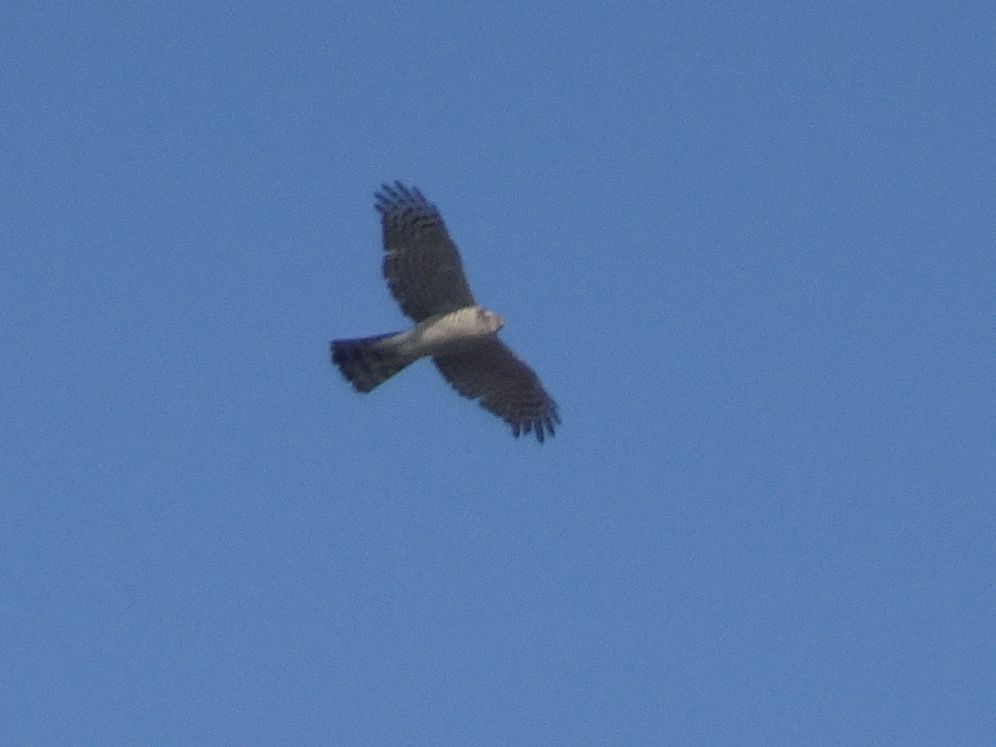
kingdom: Animalia
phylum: Chordata
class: Aves
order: Accipitriformes
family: Accipitridae
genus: Accipiter
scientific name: Accipiter nisus
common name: Eurasian sparrowhawk
